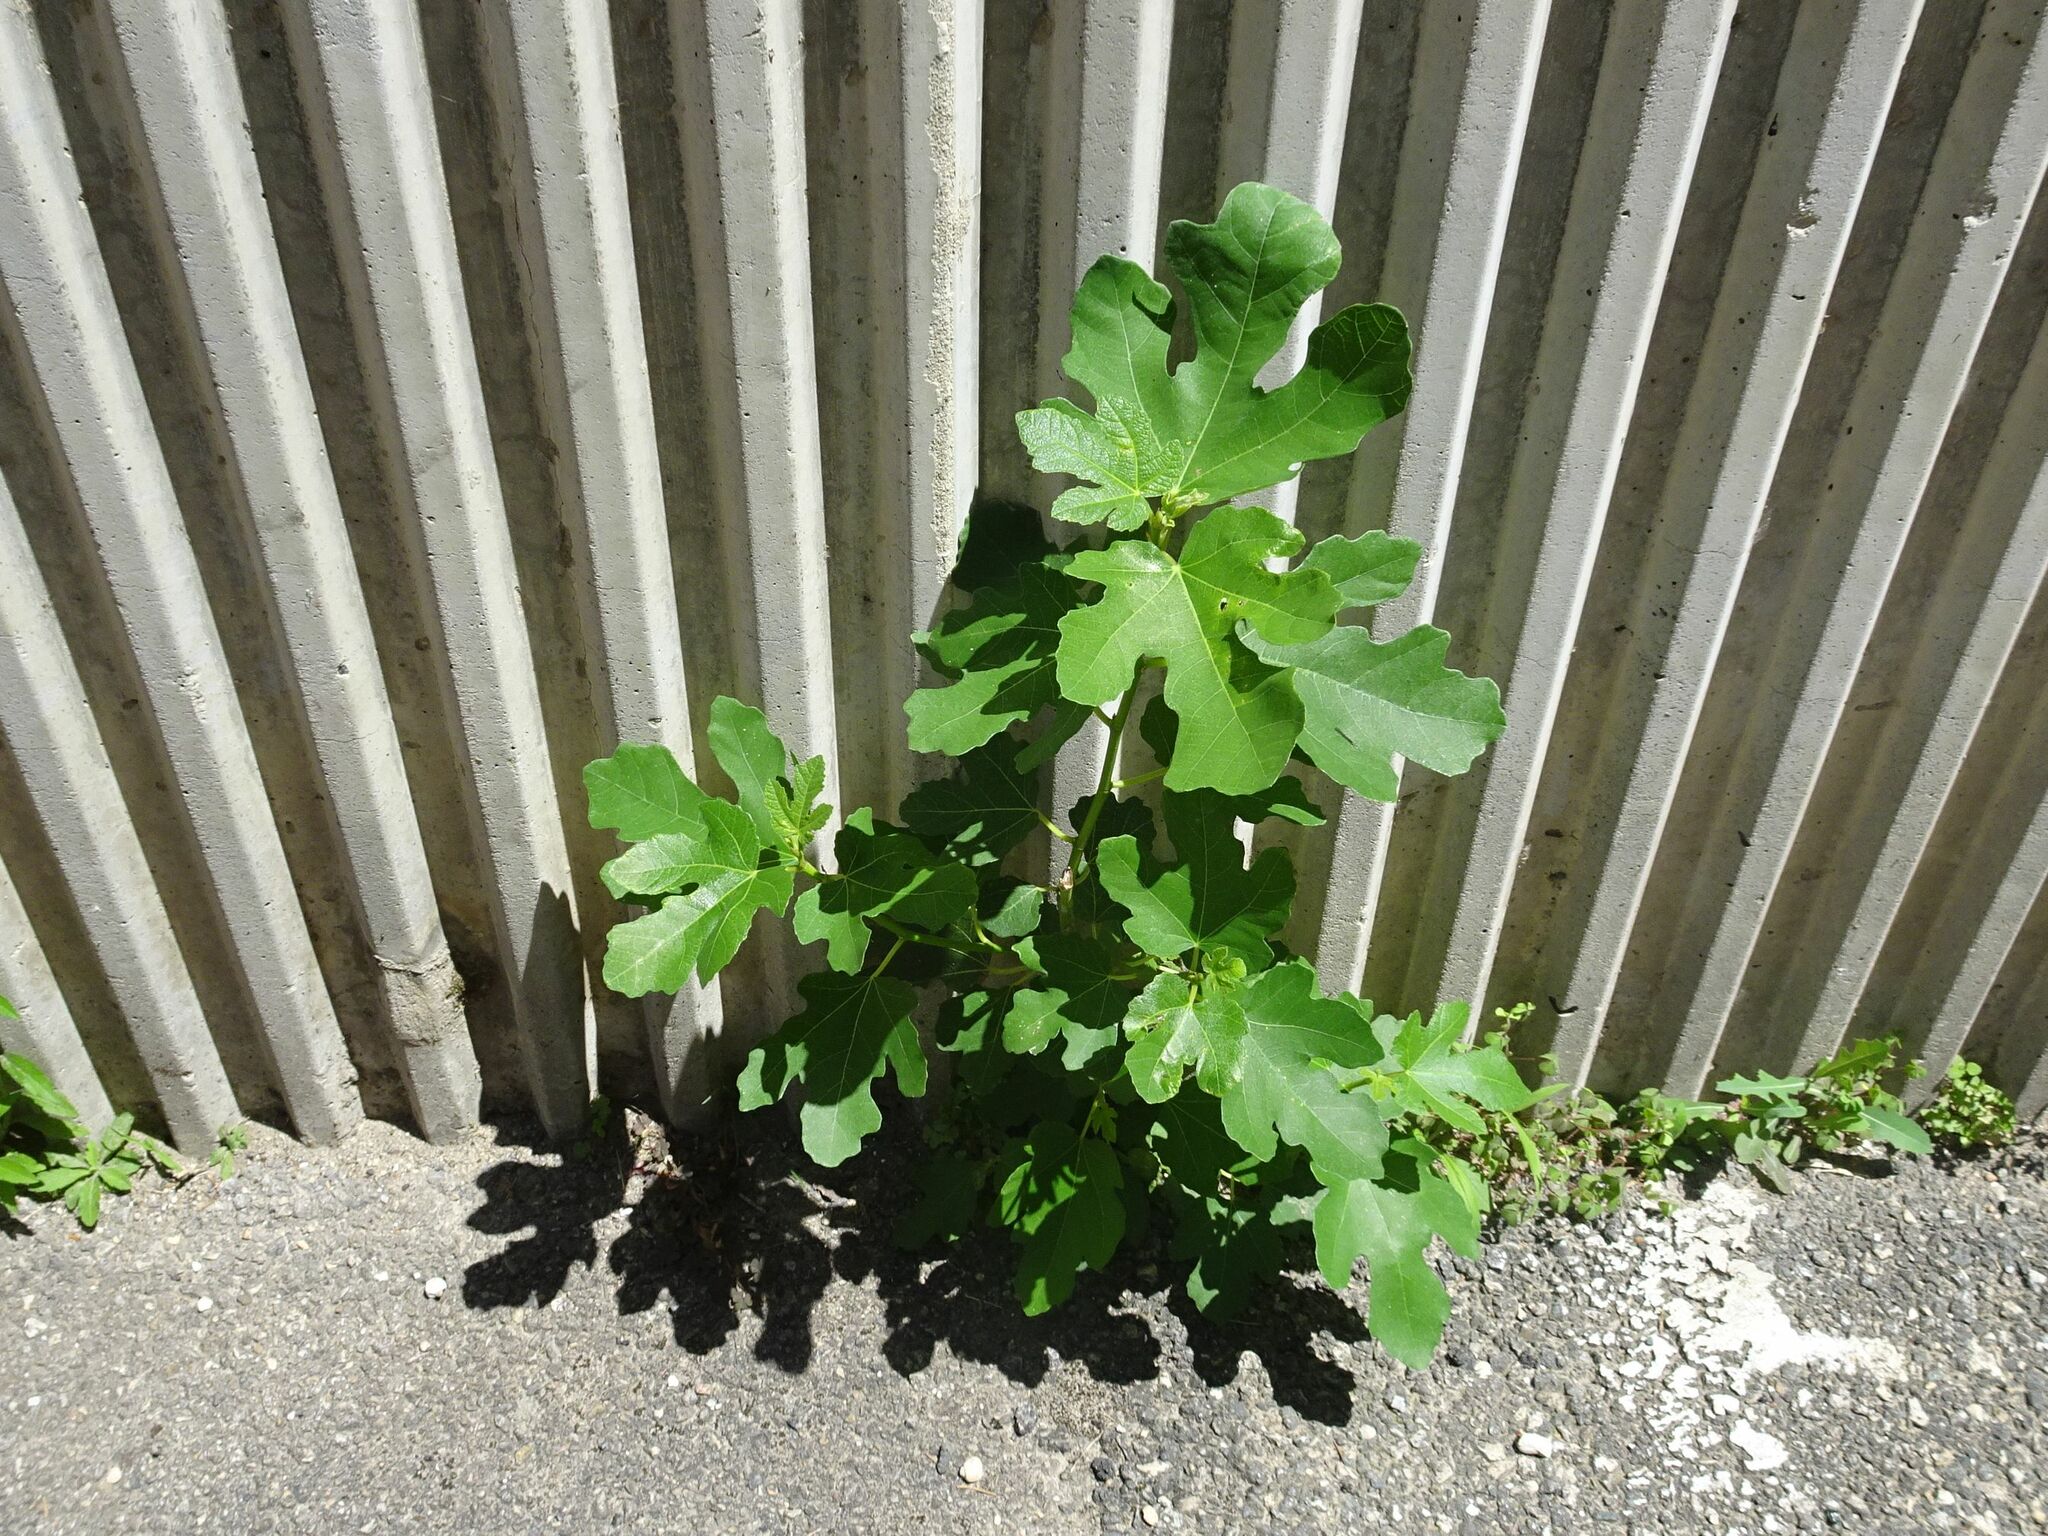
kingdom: Plantae
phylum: Tracheophyta
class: Magnoliopsida
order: Rosales
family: Moraceae
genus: Ficus
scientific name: Ficus carica
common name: Fig
